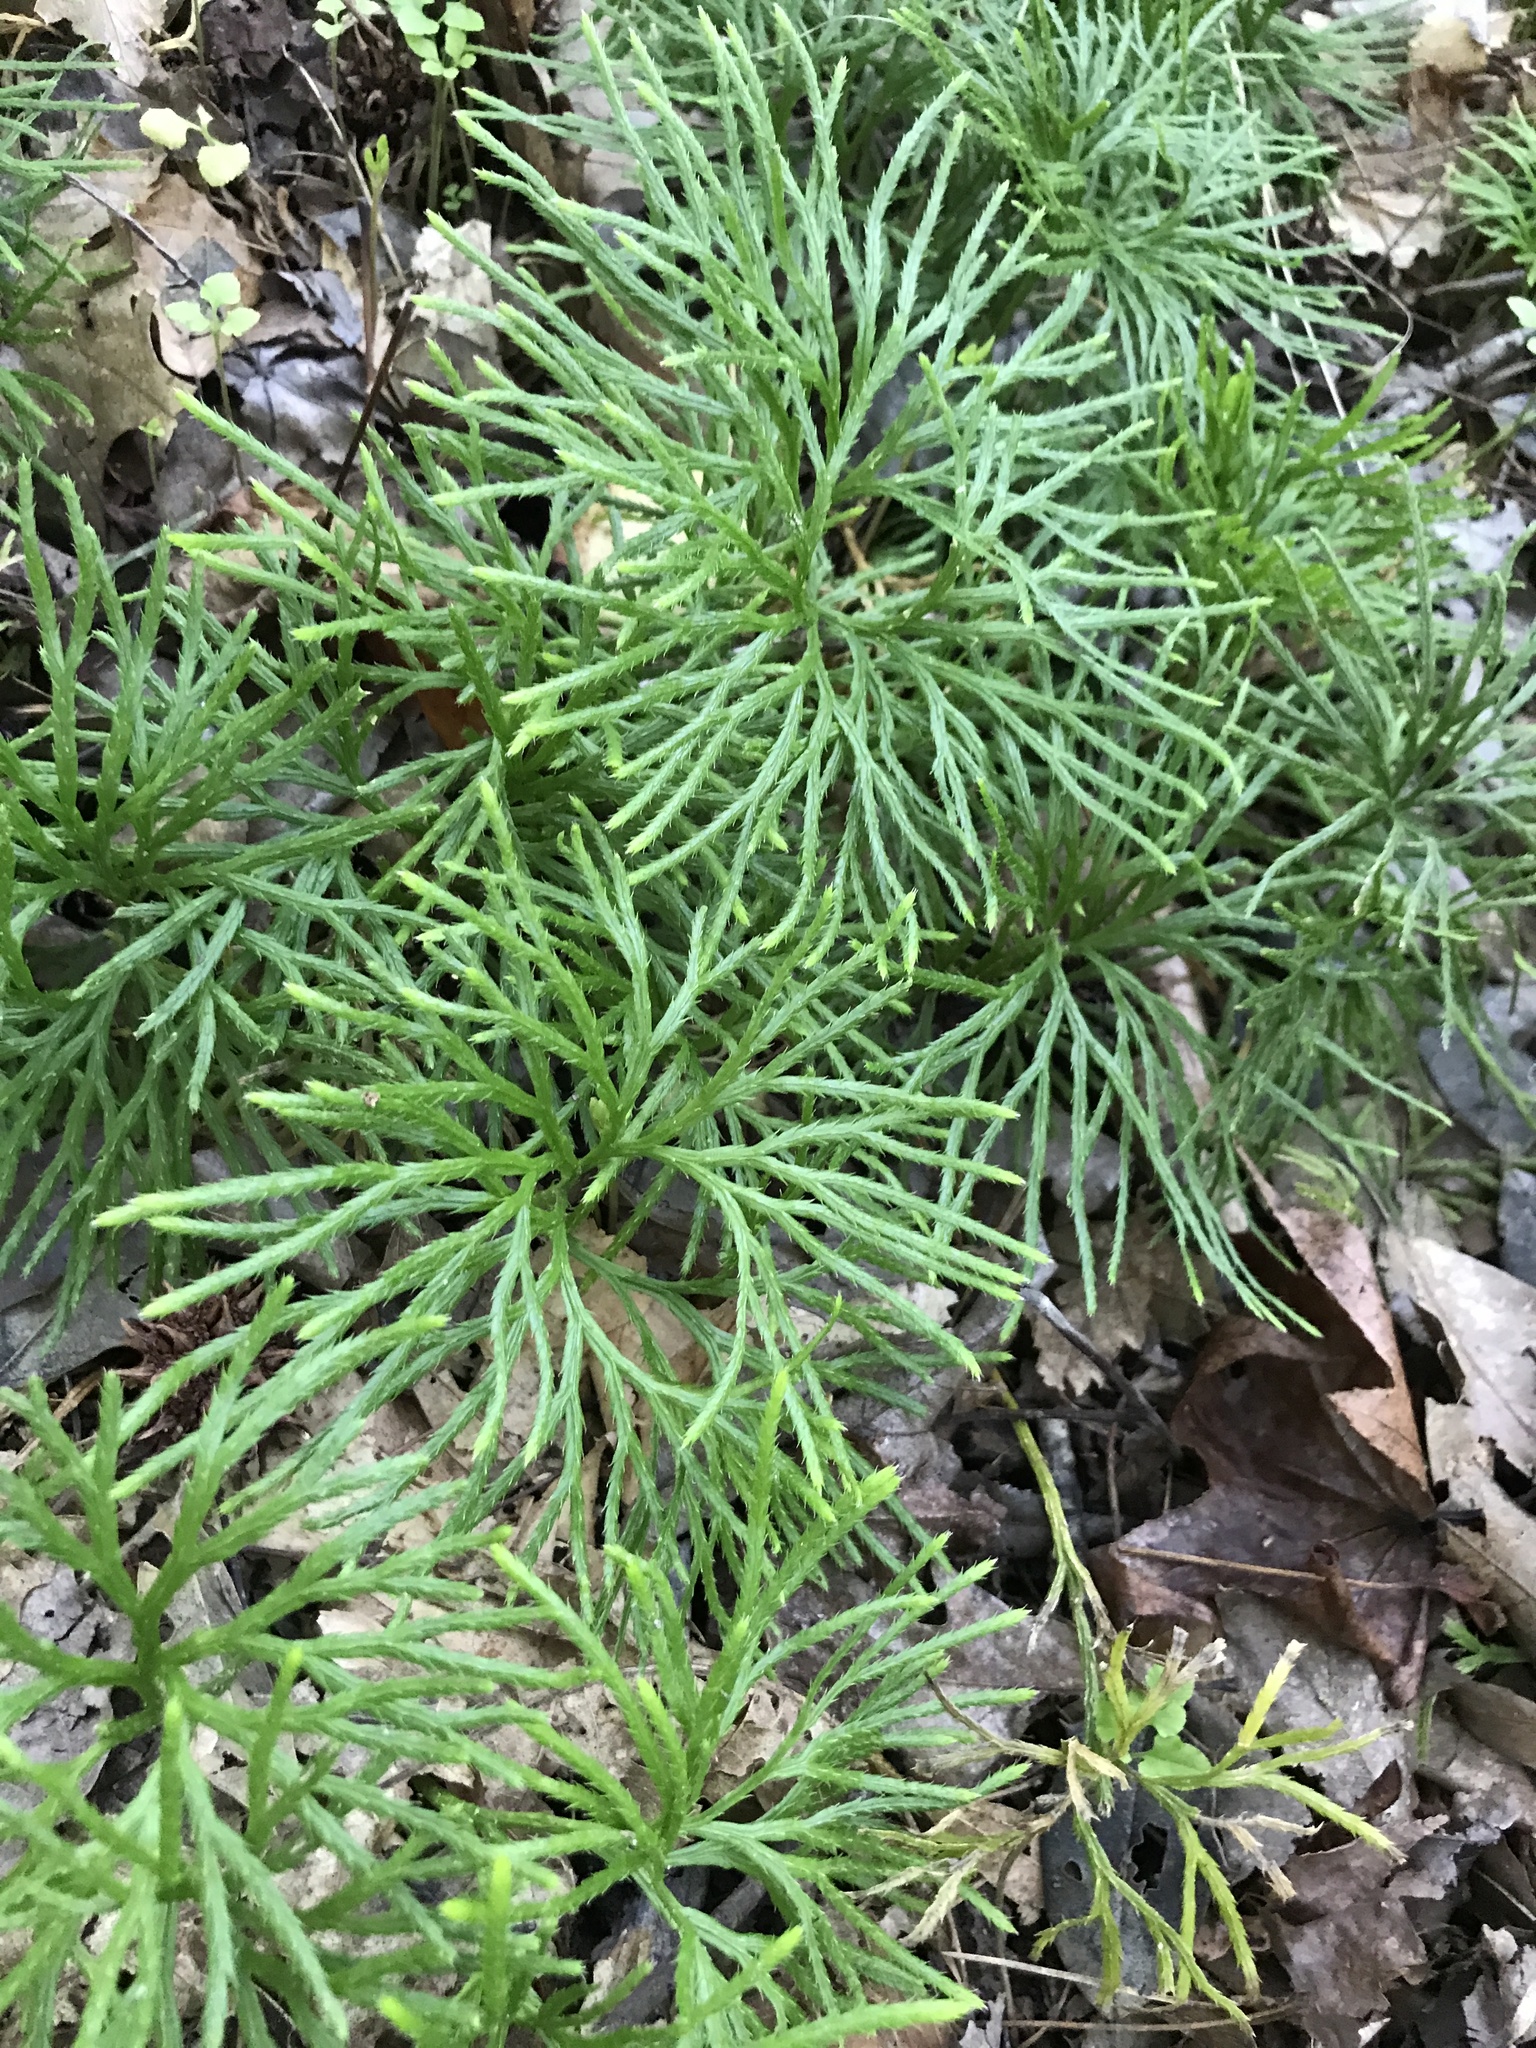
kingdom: Plantae
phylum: Tracheophyta
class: Lycopodiopsida
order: Lycopodiales
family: Lycopodiaceae
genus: Diphasiastrum
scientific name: Diphasiastrum digitatum
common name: Southern running-pine
